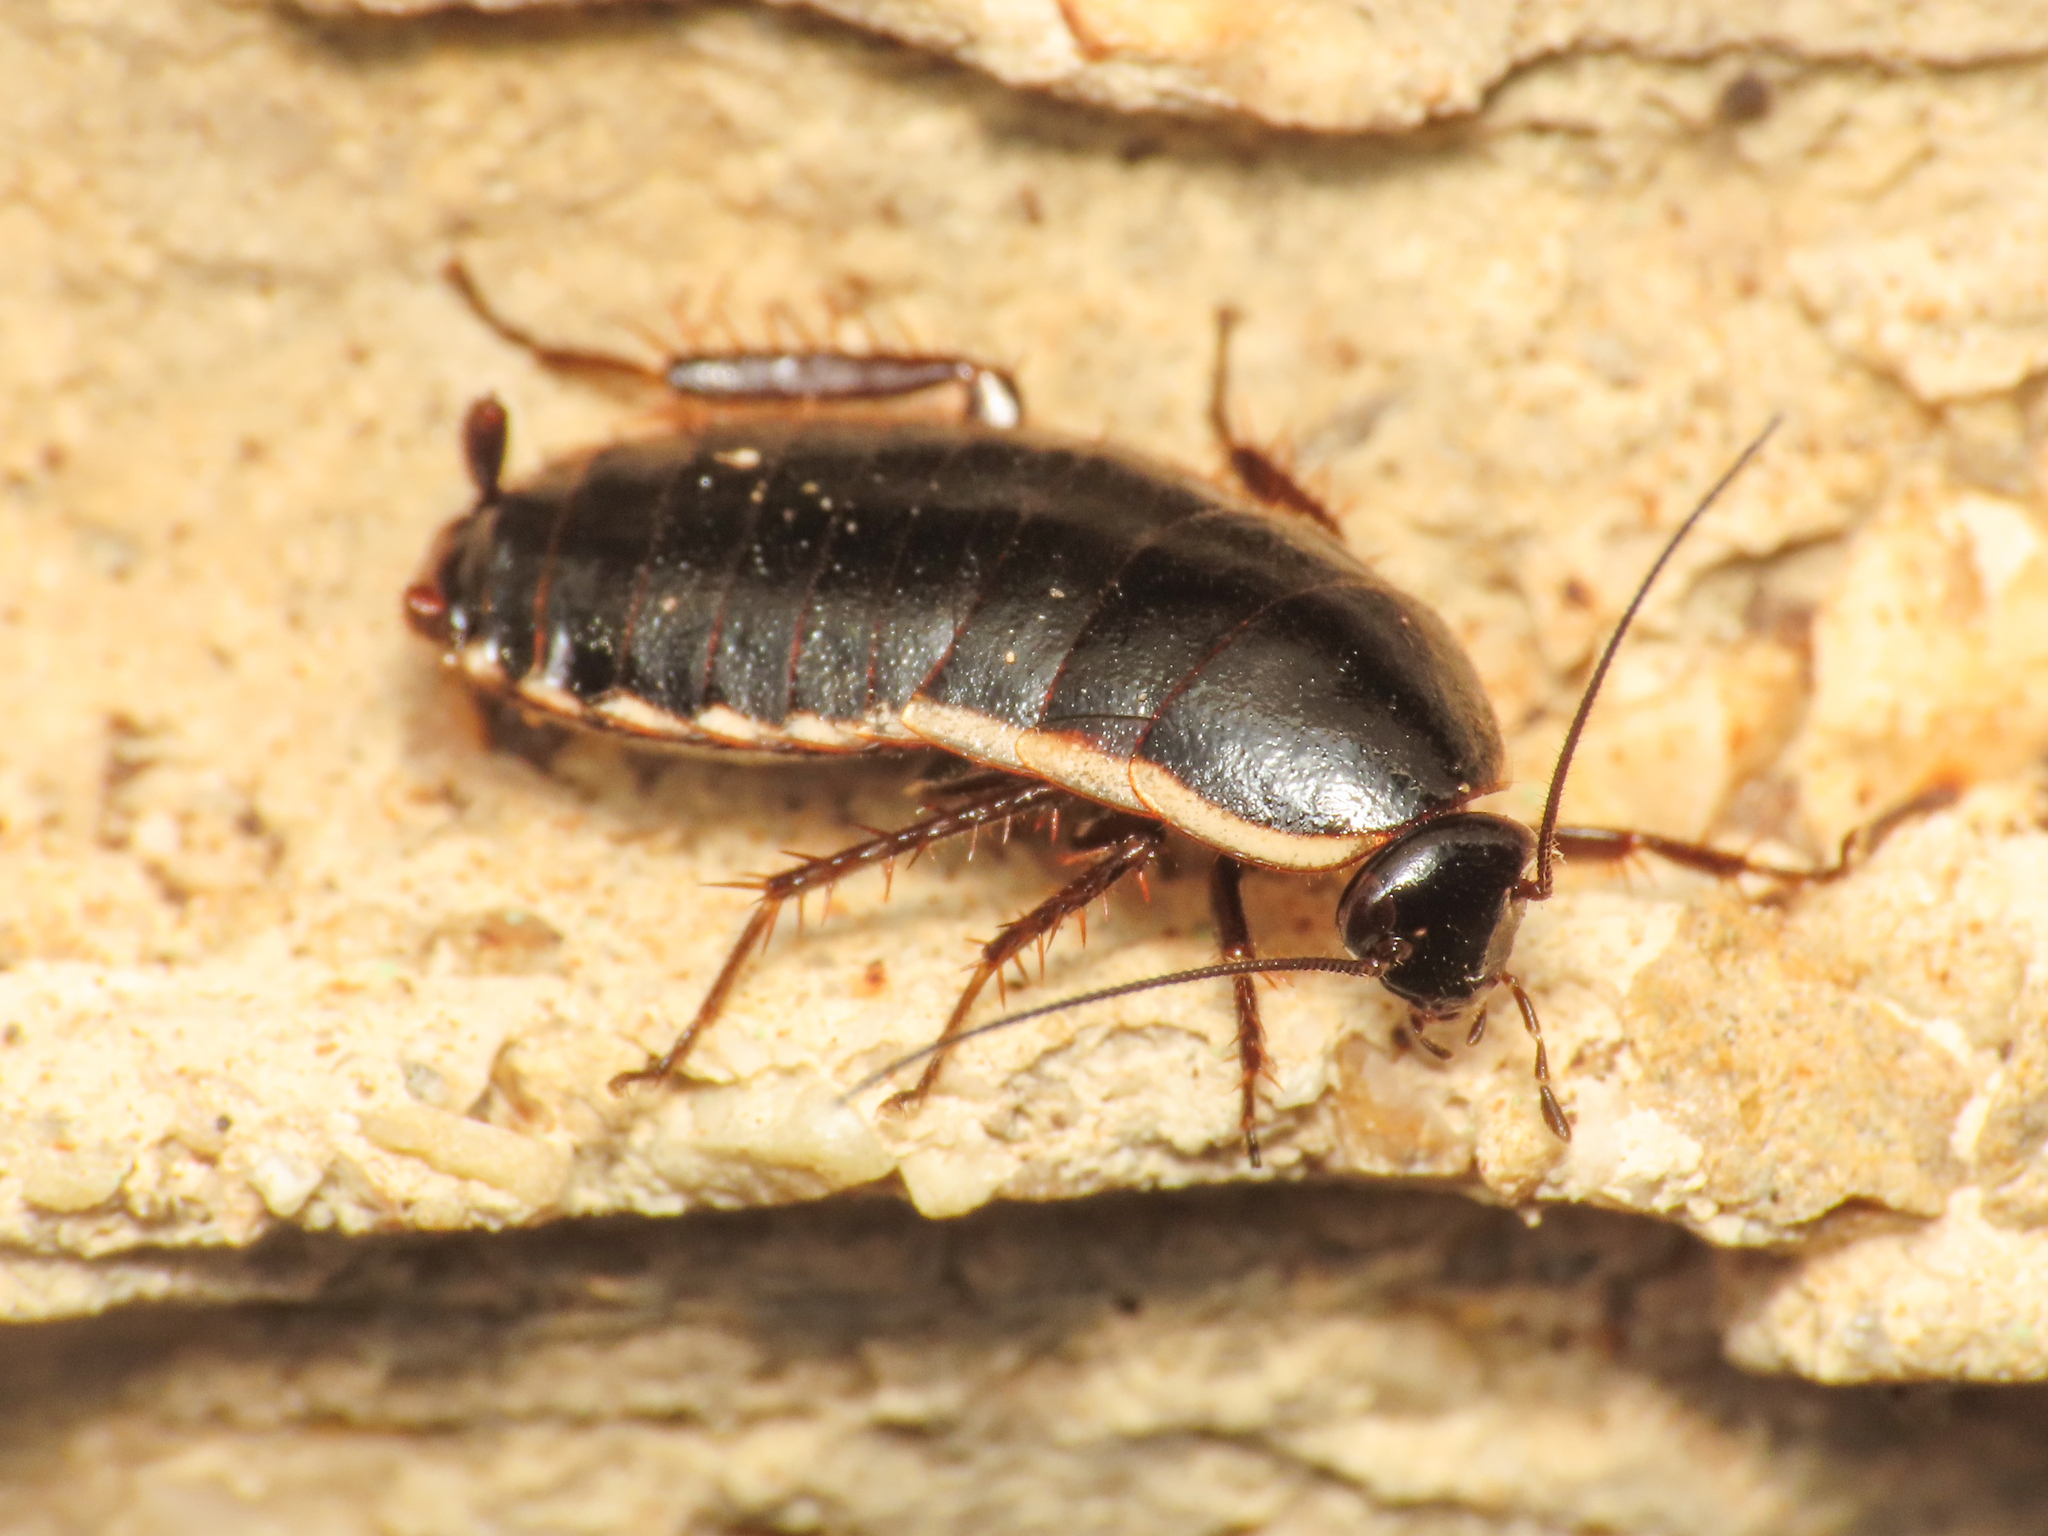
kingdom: Animalia
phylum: Arthropoda
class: Insecta
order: Blattodea
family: Ectobiidae
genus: Loboptera
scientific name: Loboptera decipiens
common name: Lobe-winged cockroach
